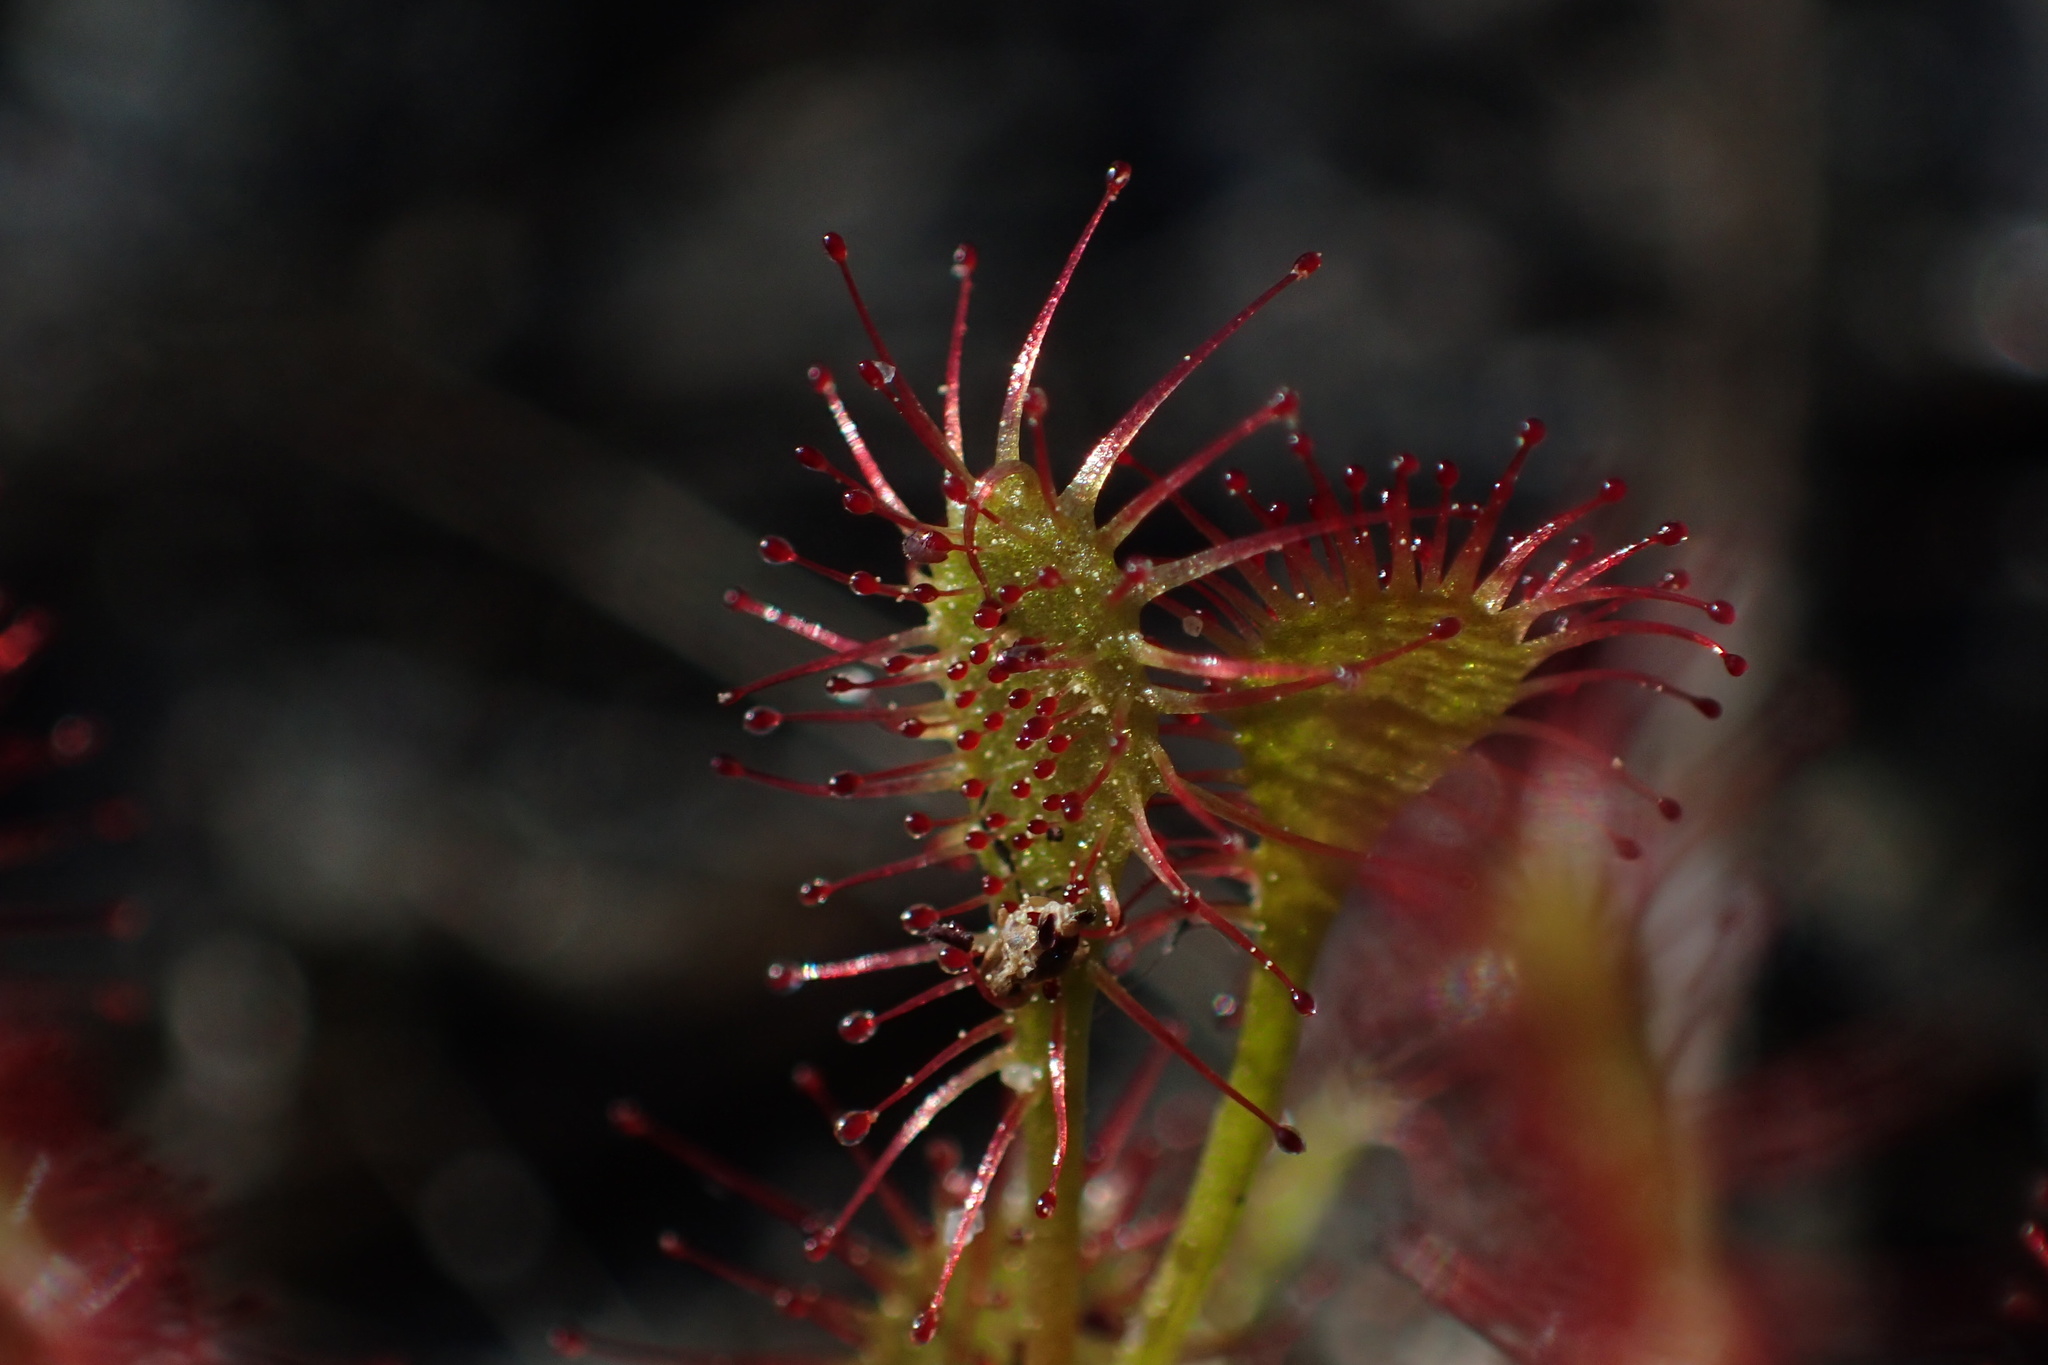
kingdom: Plantae
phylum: Tracheophyta
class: Magnoliopsida
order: Caryophyllales
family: Droseraceae
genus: Drosera
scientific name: Drosera intermedia
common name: Oblong-leaved sundew
